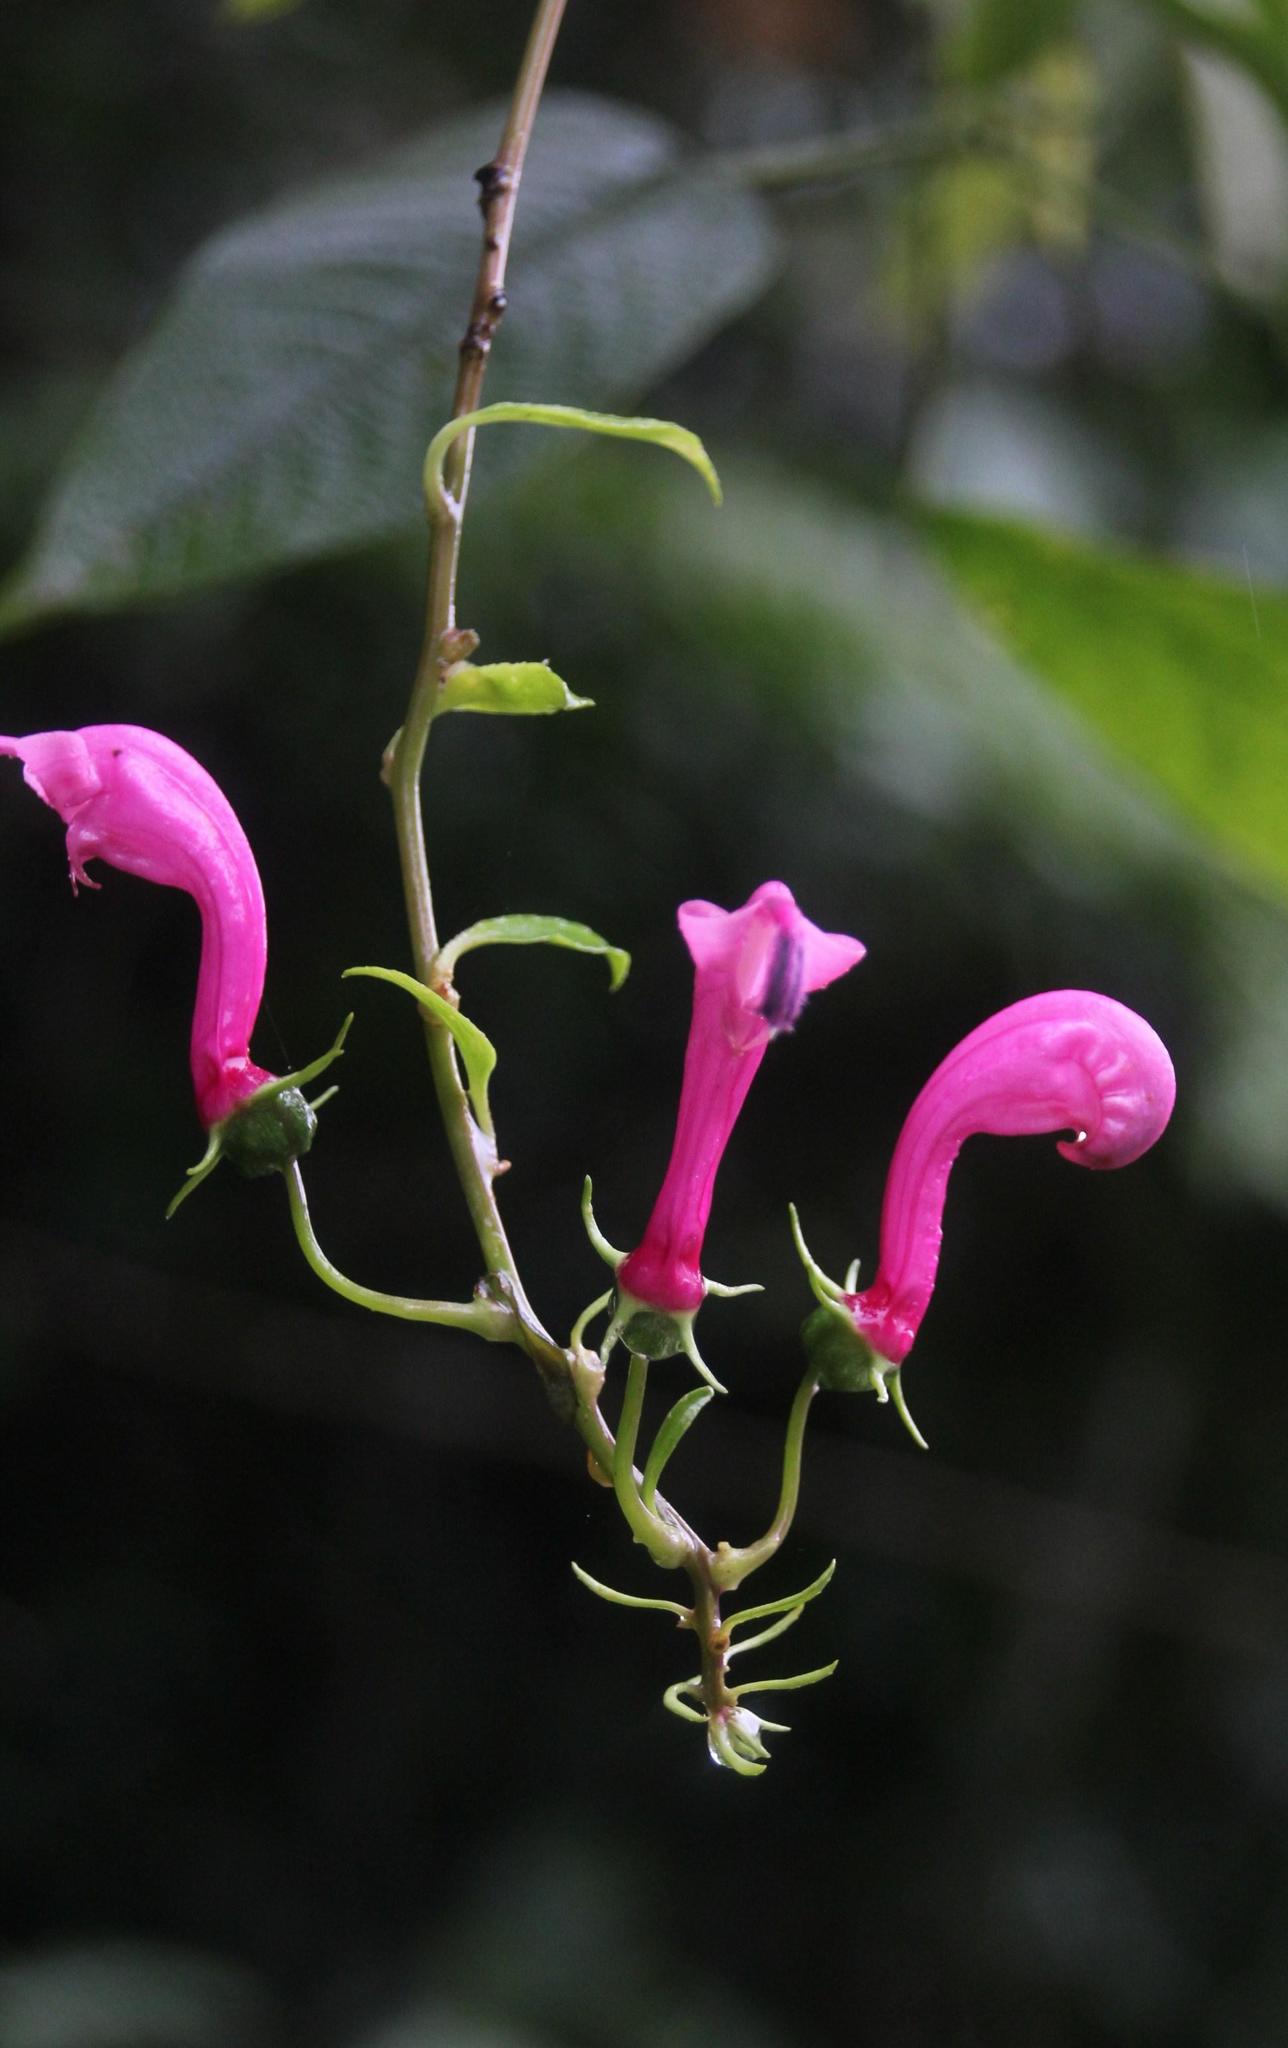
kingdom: Plantae
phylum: Tracheophyta
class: Magnoliopsida
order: Asterales
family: Campanulaceae
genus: Centropogon
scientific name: Centropogon urubambae
